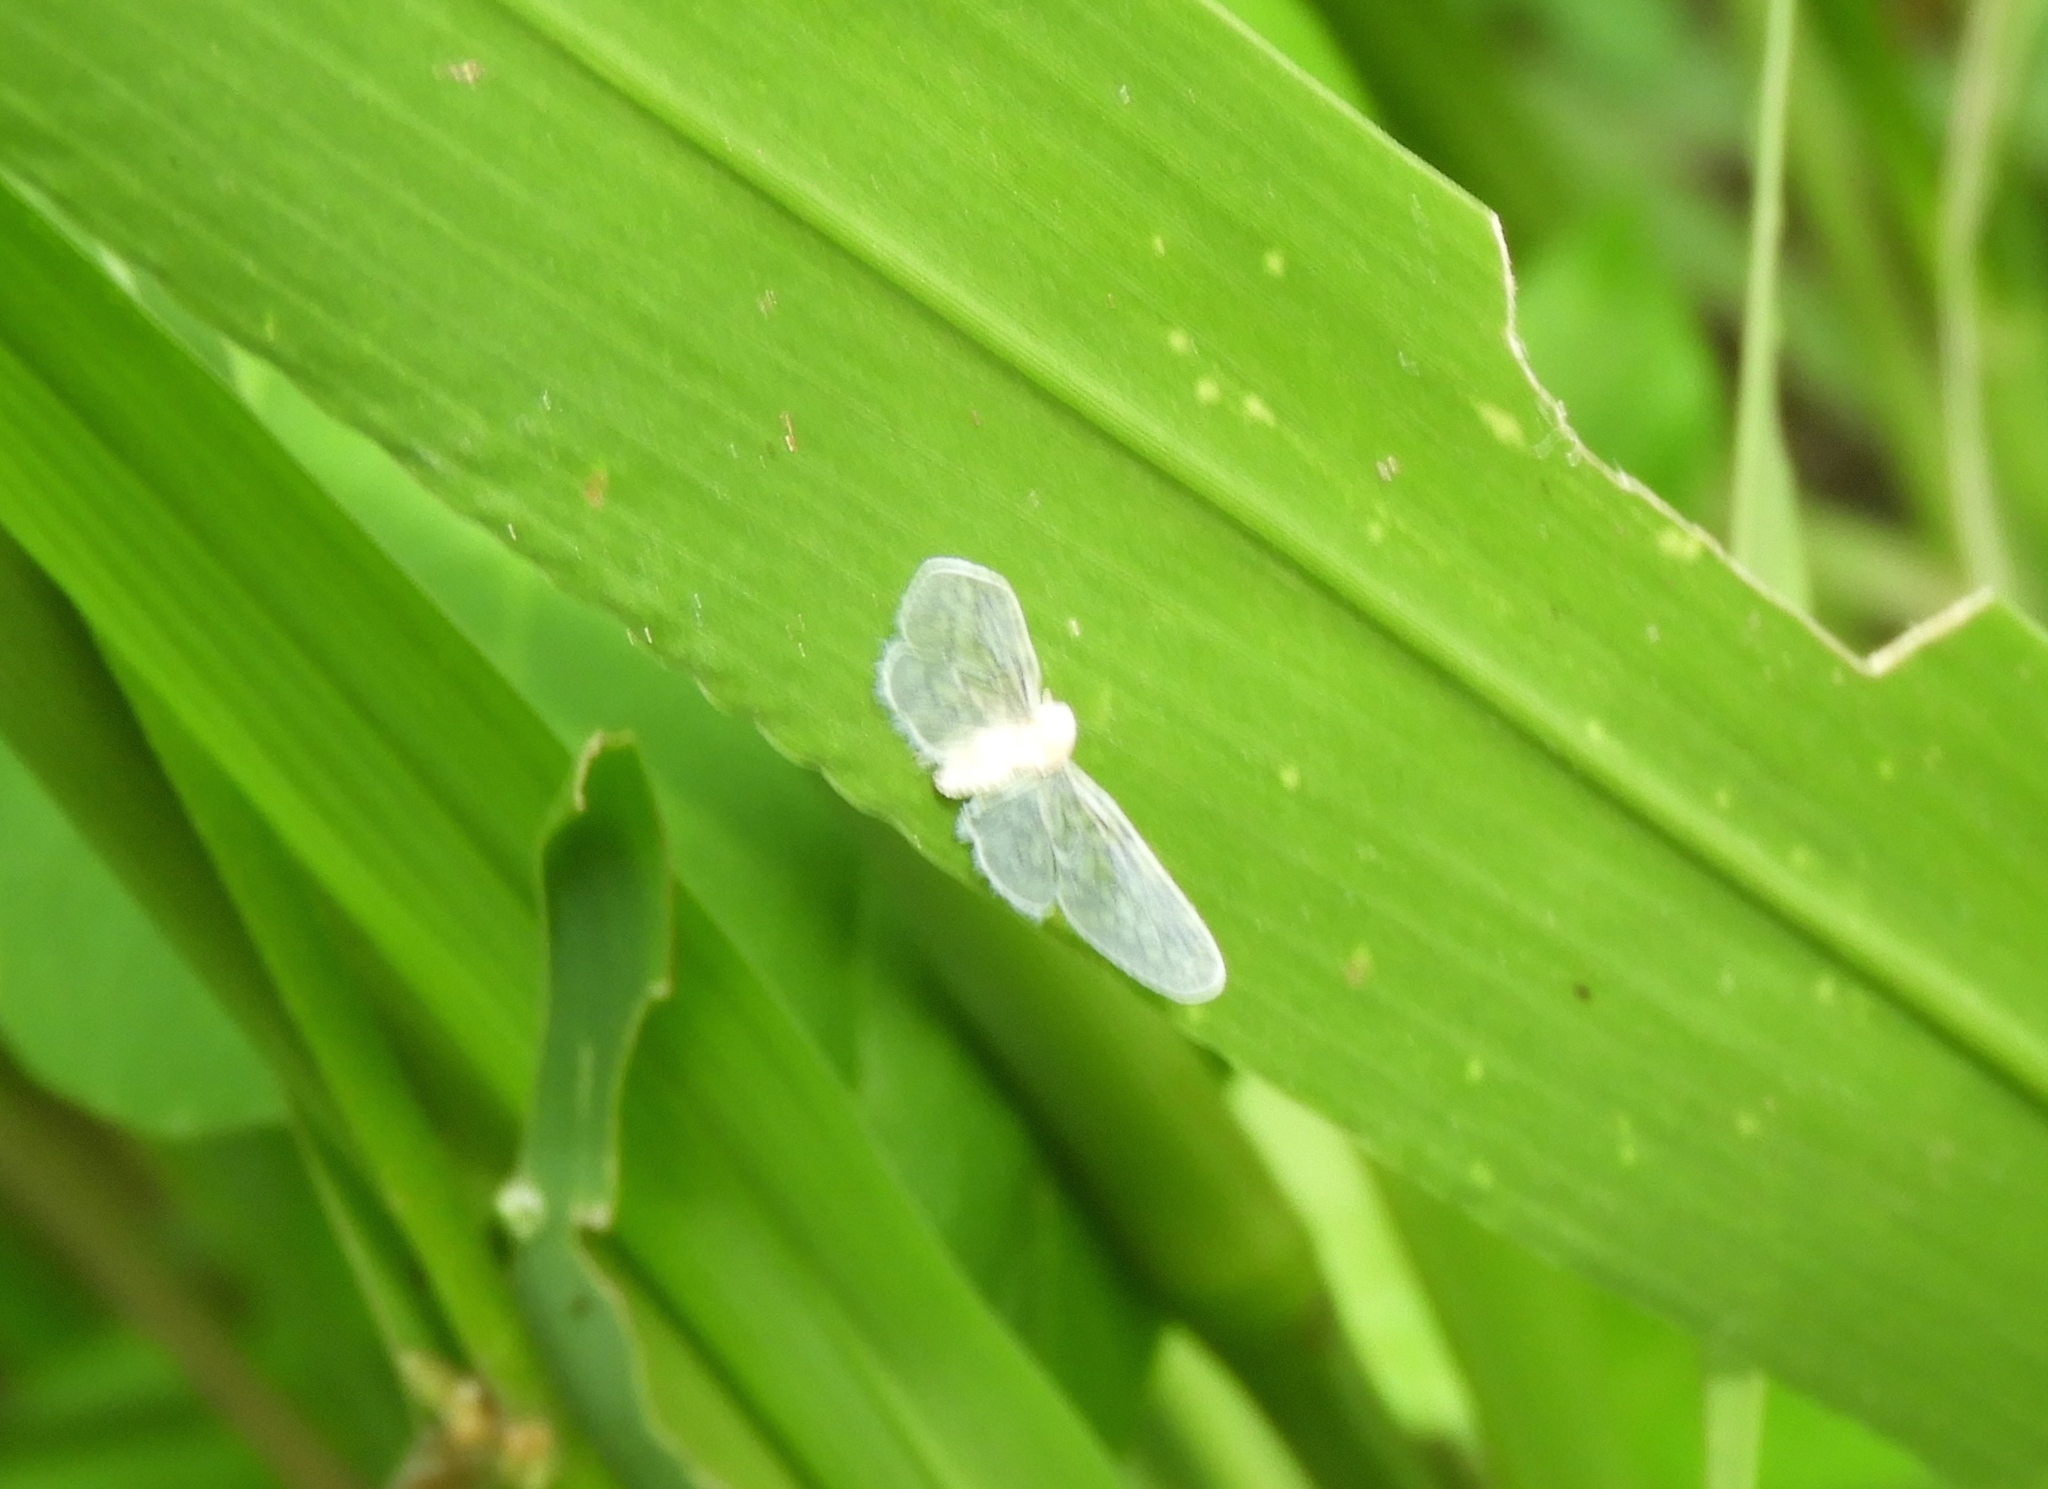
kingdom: Animalia
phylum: Arthropoda
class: Insecta
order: Hemiptera
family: Derbidae
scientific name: Derbidae
